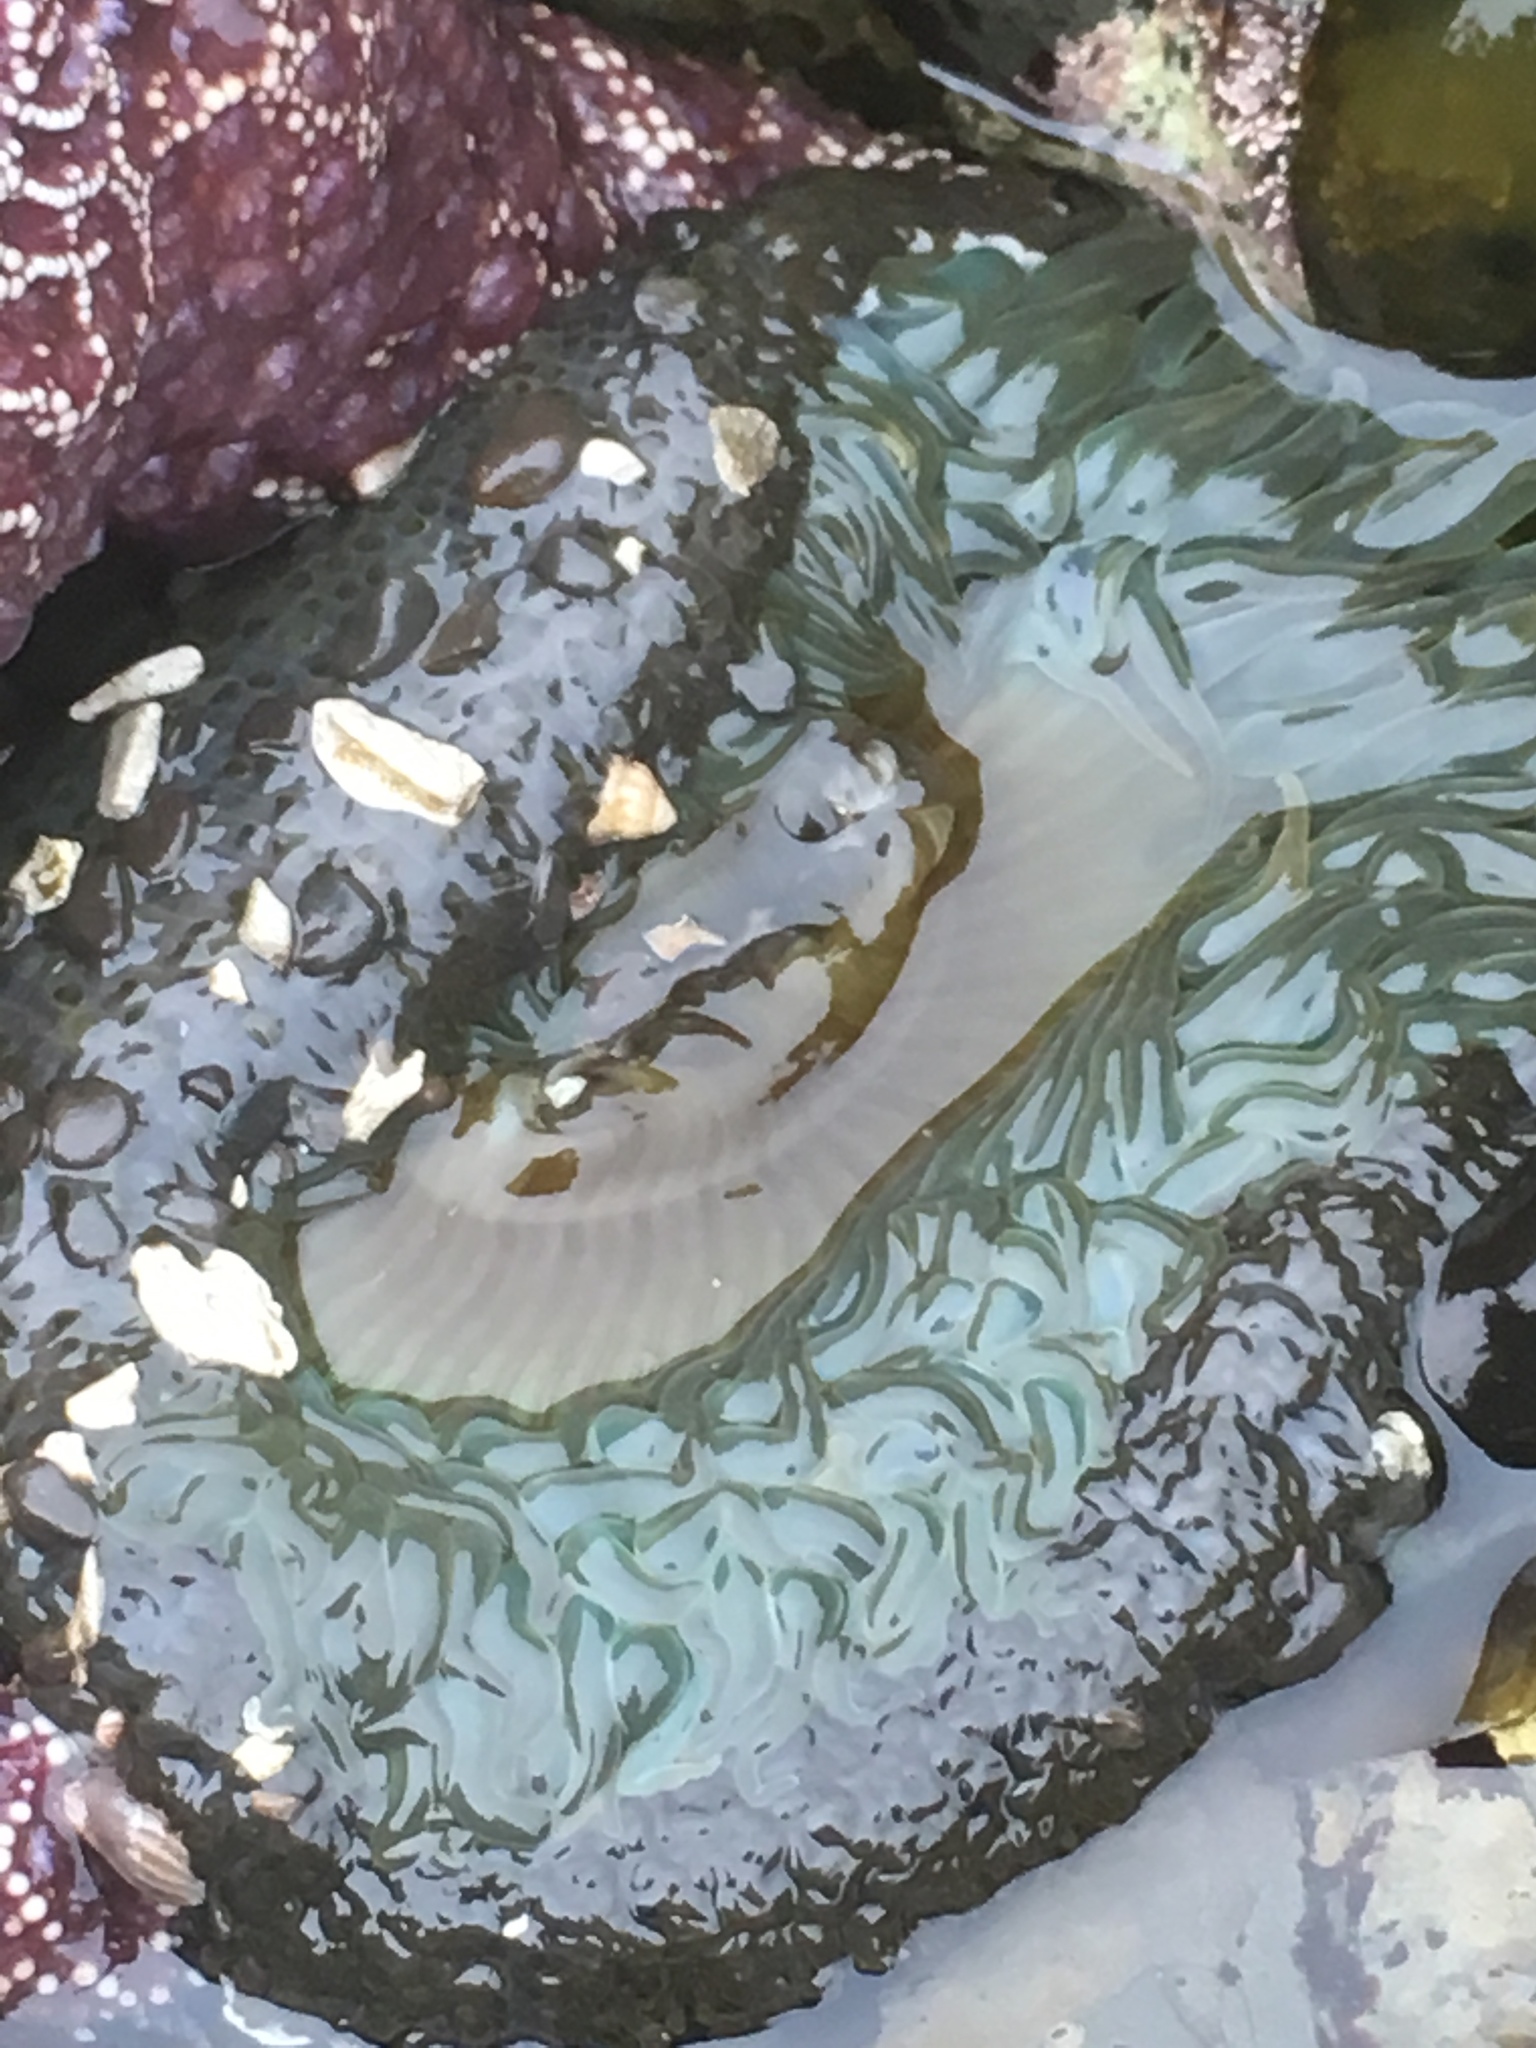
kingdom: Animalia
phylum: Cnidaria
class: Anthozoa
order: Actiniaria
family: Actiniidae
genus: Anthopleura
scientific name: Anthopleura sola
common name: Sun anemone
